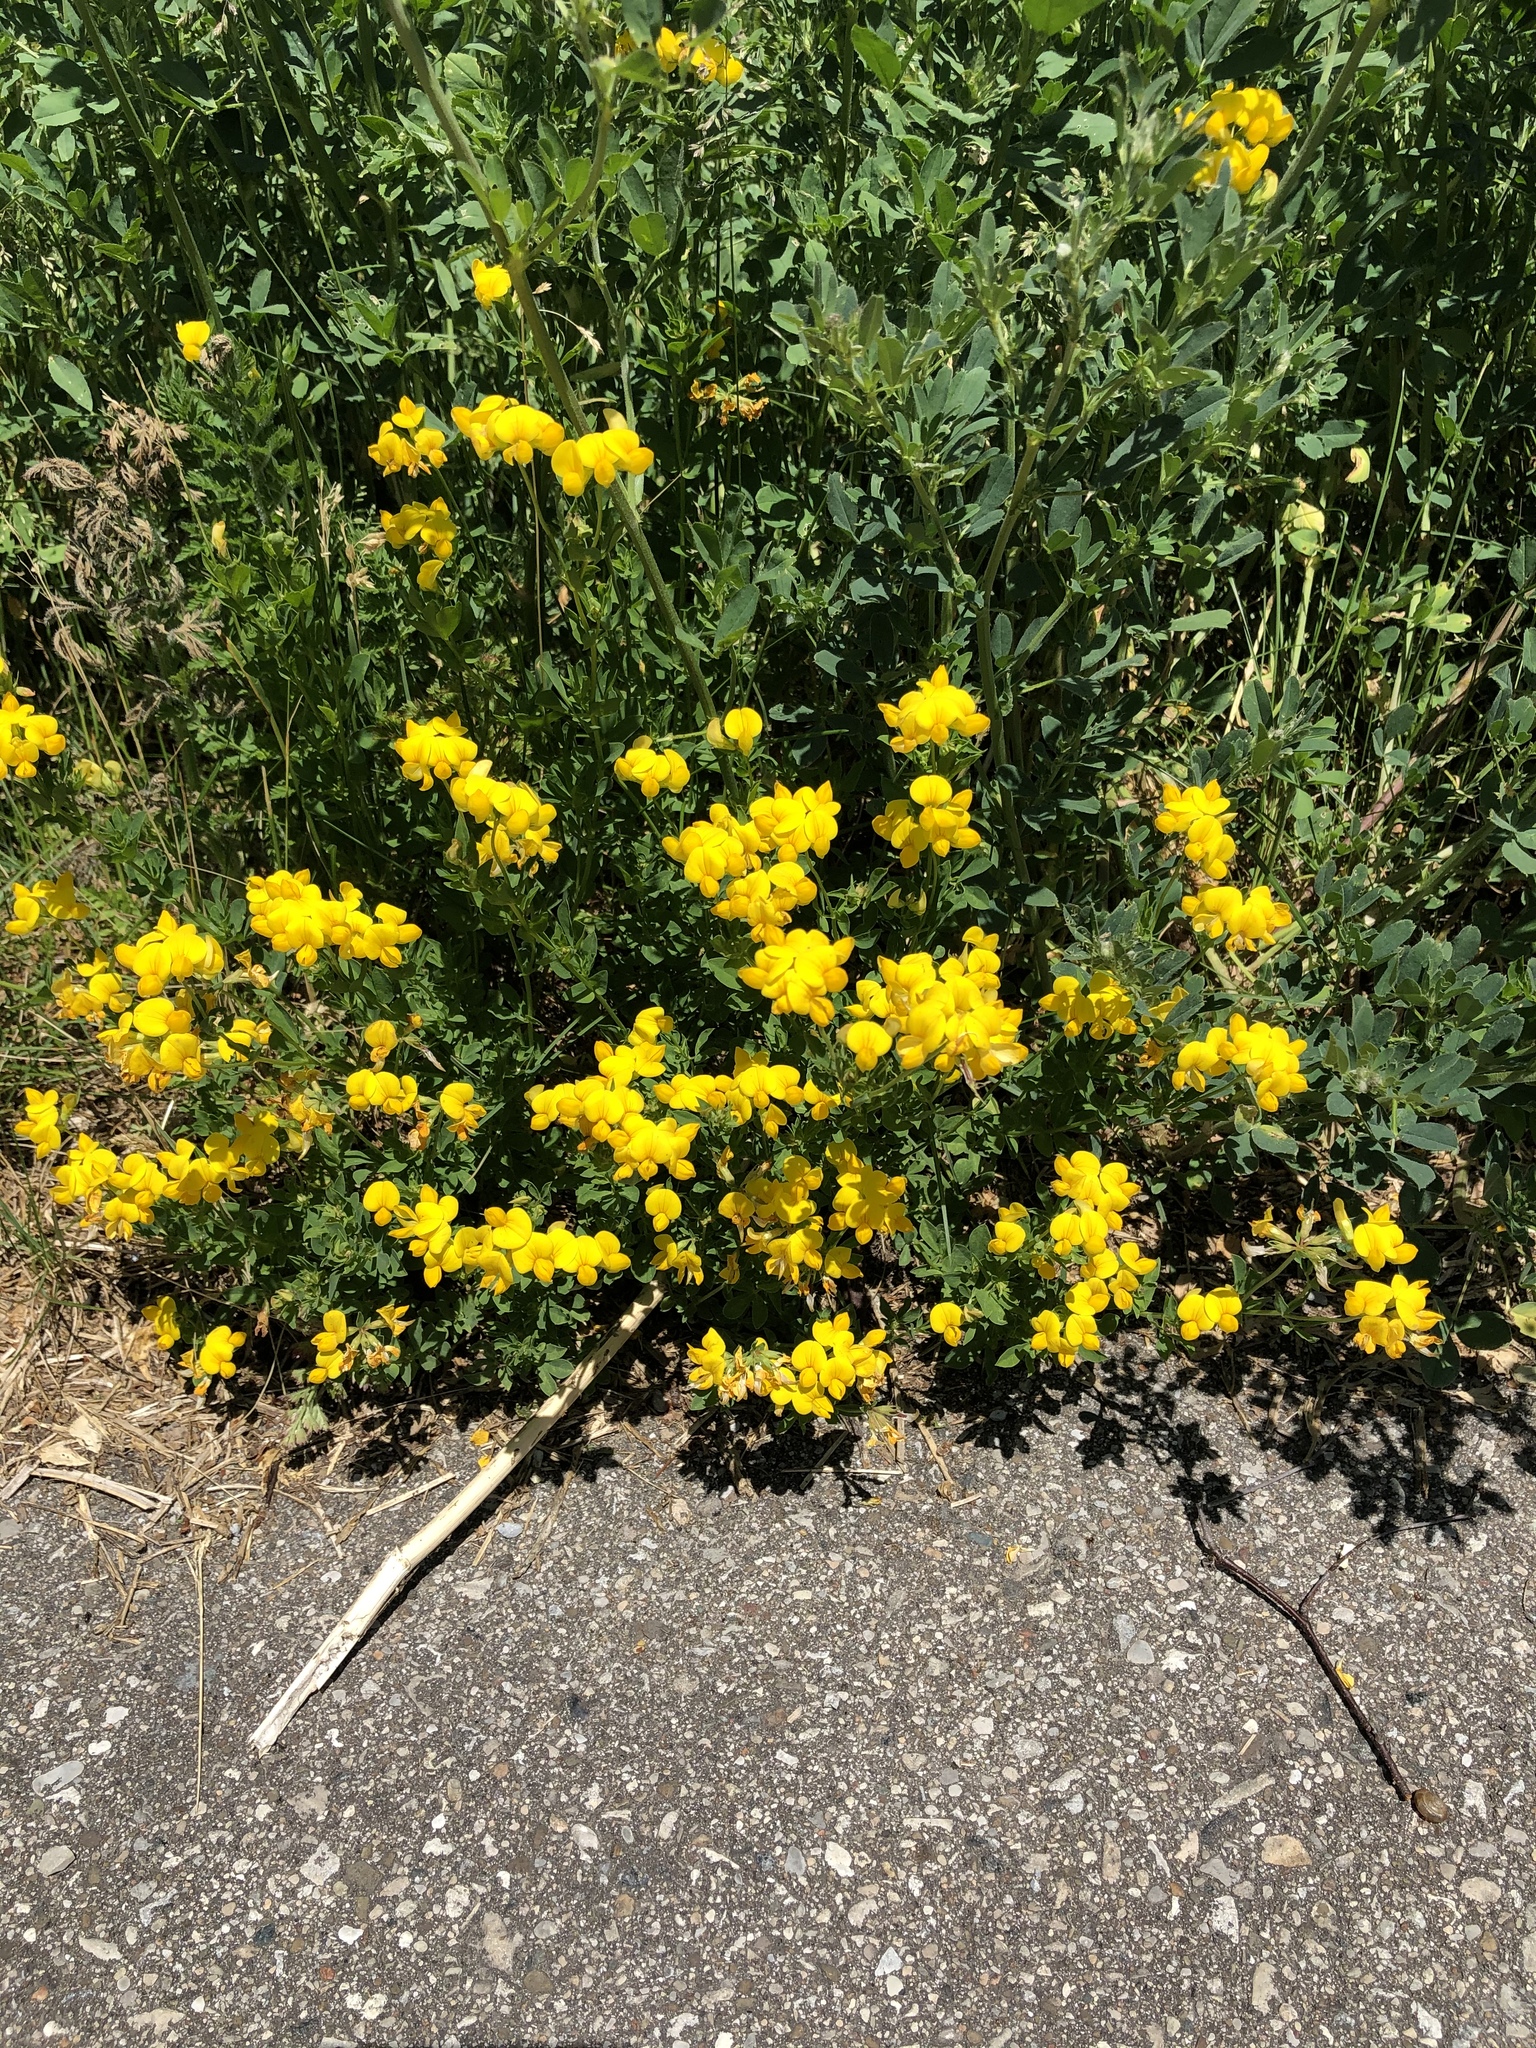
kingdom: Plantae
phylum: Tracheophyta
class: Magnoliopsida
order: Fabales
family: Fabaceae
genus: Lotus
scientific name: Lotus corniculatus
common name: Common bird's-foot-trefoil
